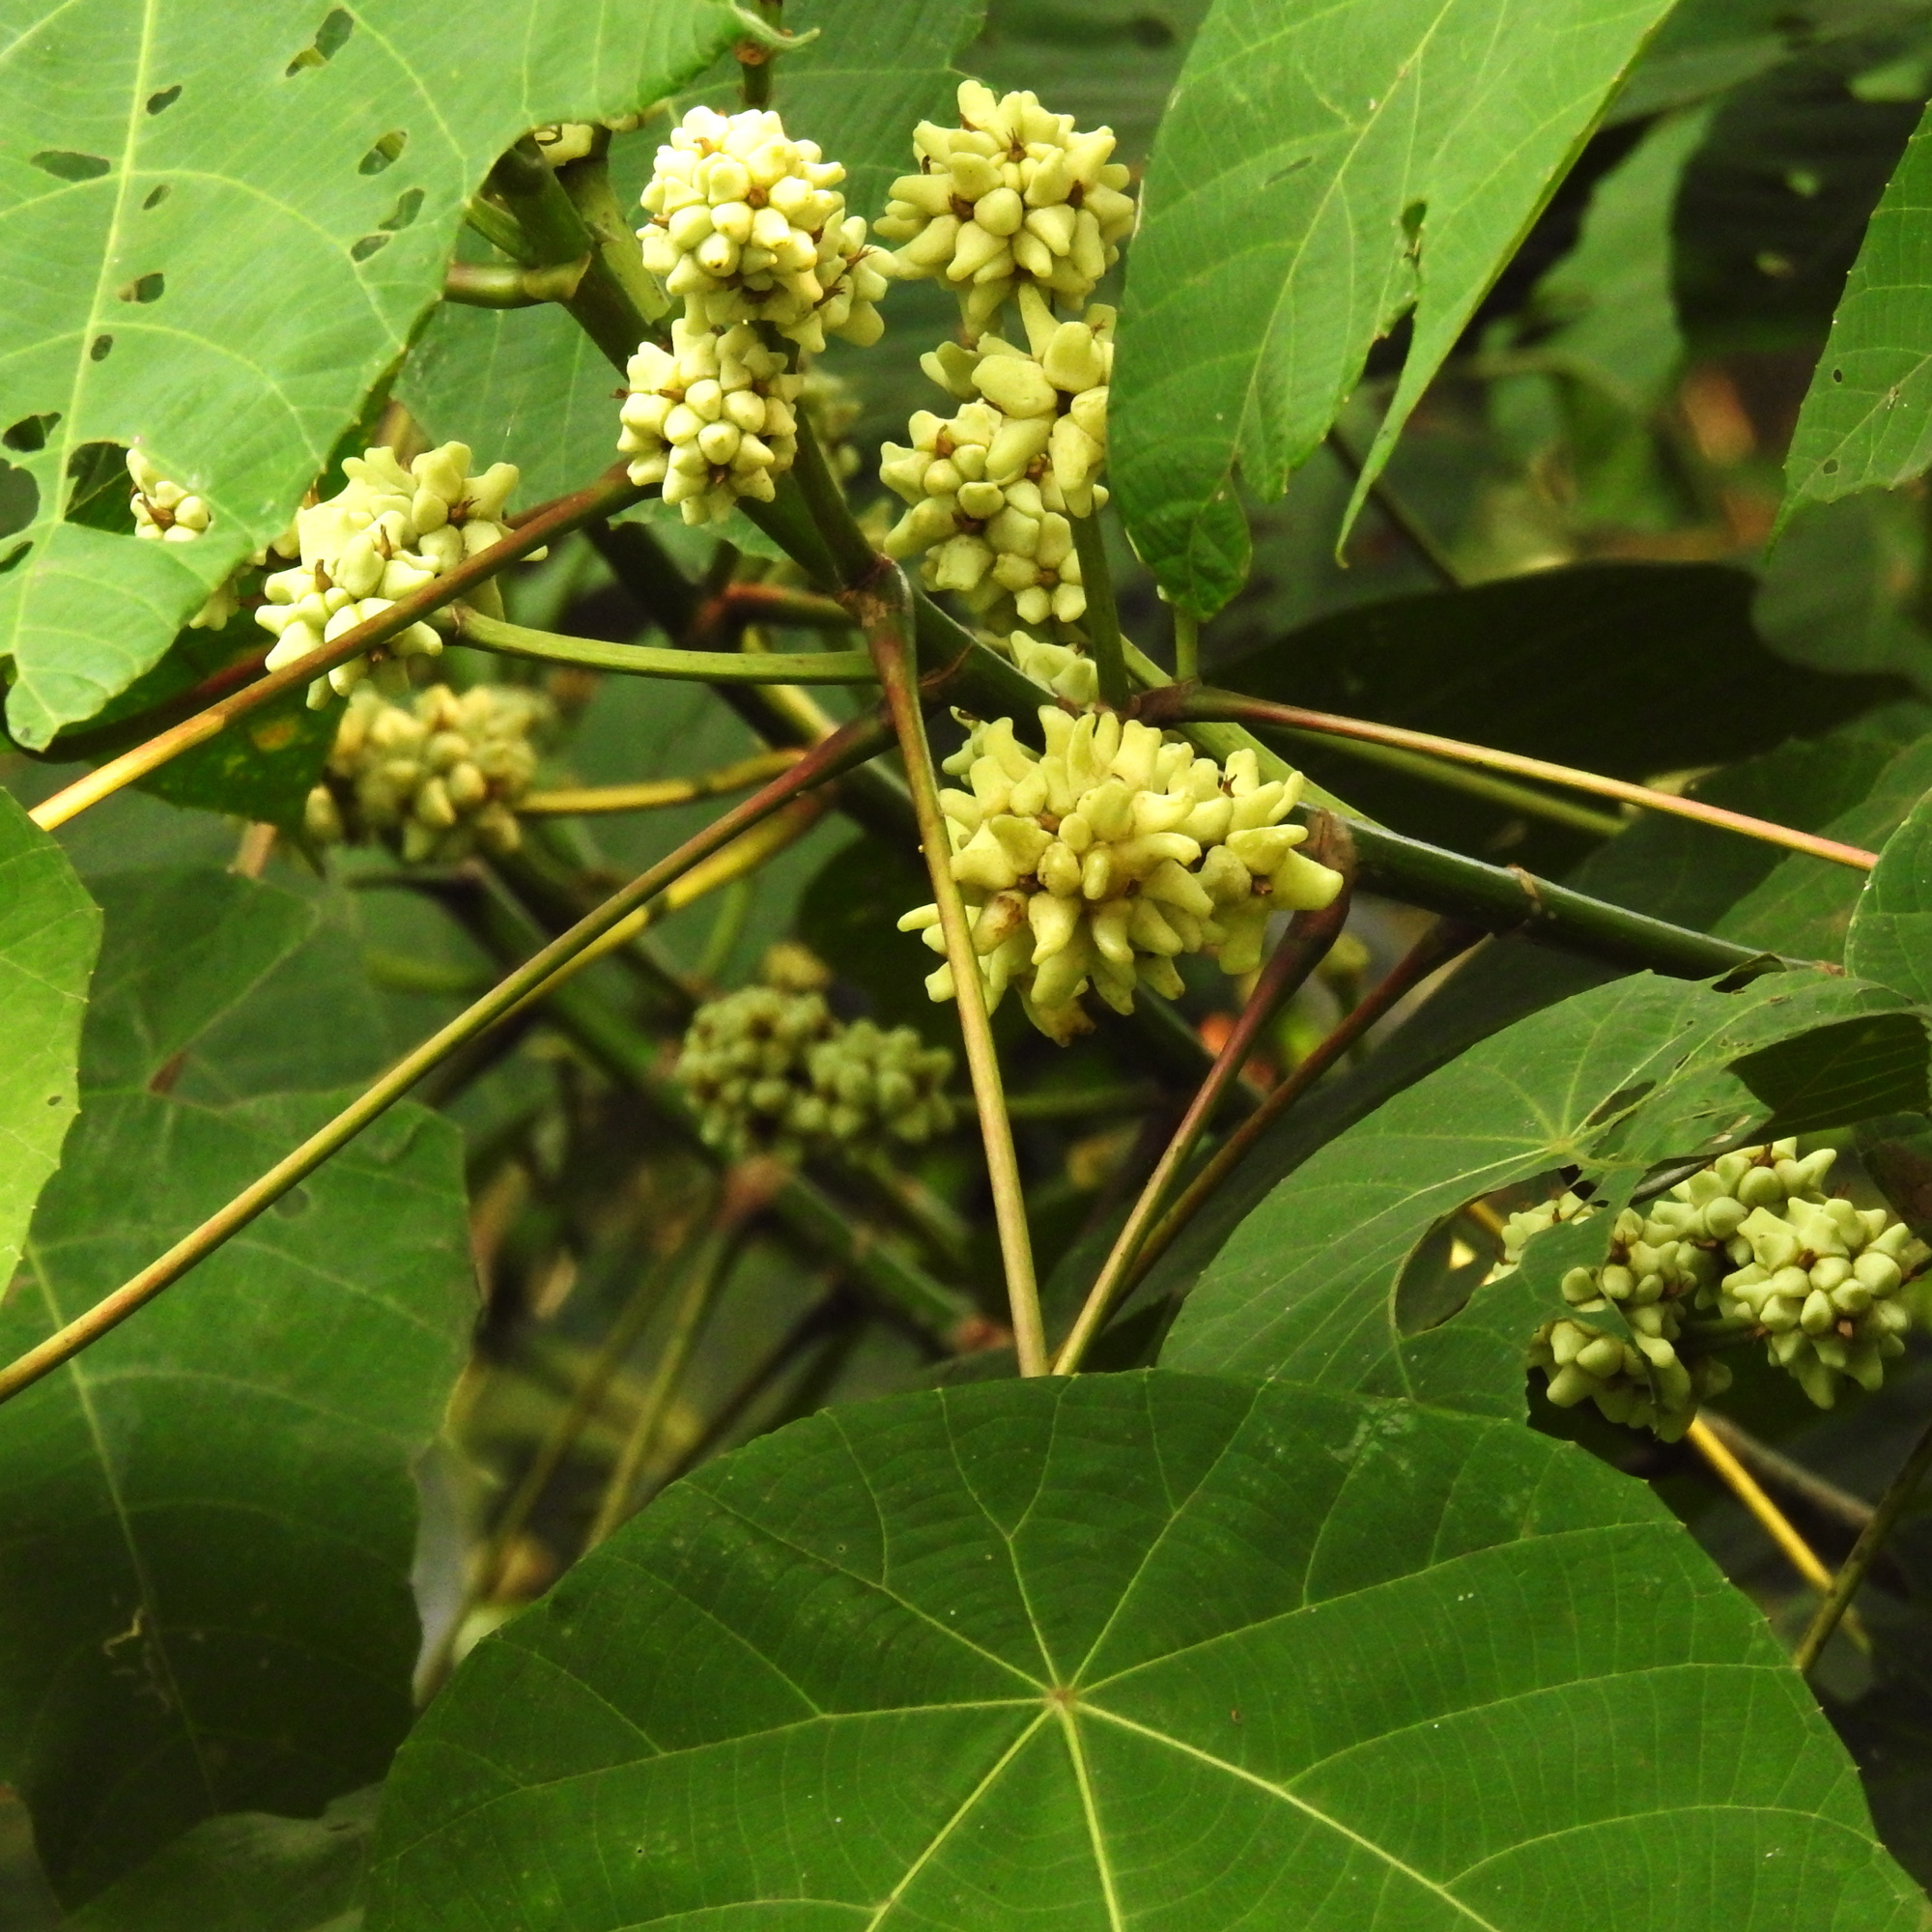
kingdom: Plantae
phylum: Tracheophyta
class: Magnoliopsida
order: Malpighiales
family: Euphorbiaceae
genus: Macaranga
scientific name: Macaranga triloba
